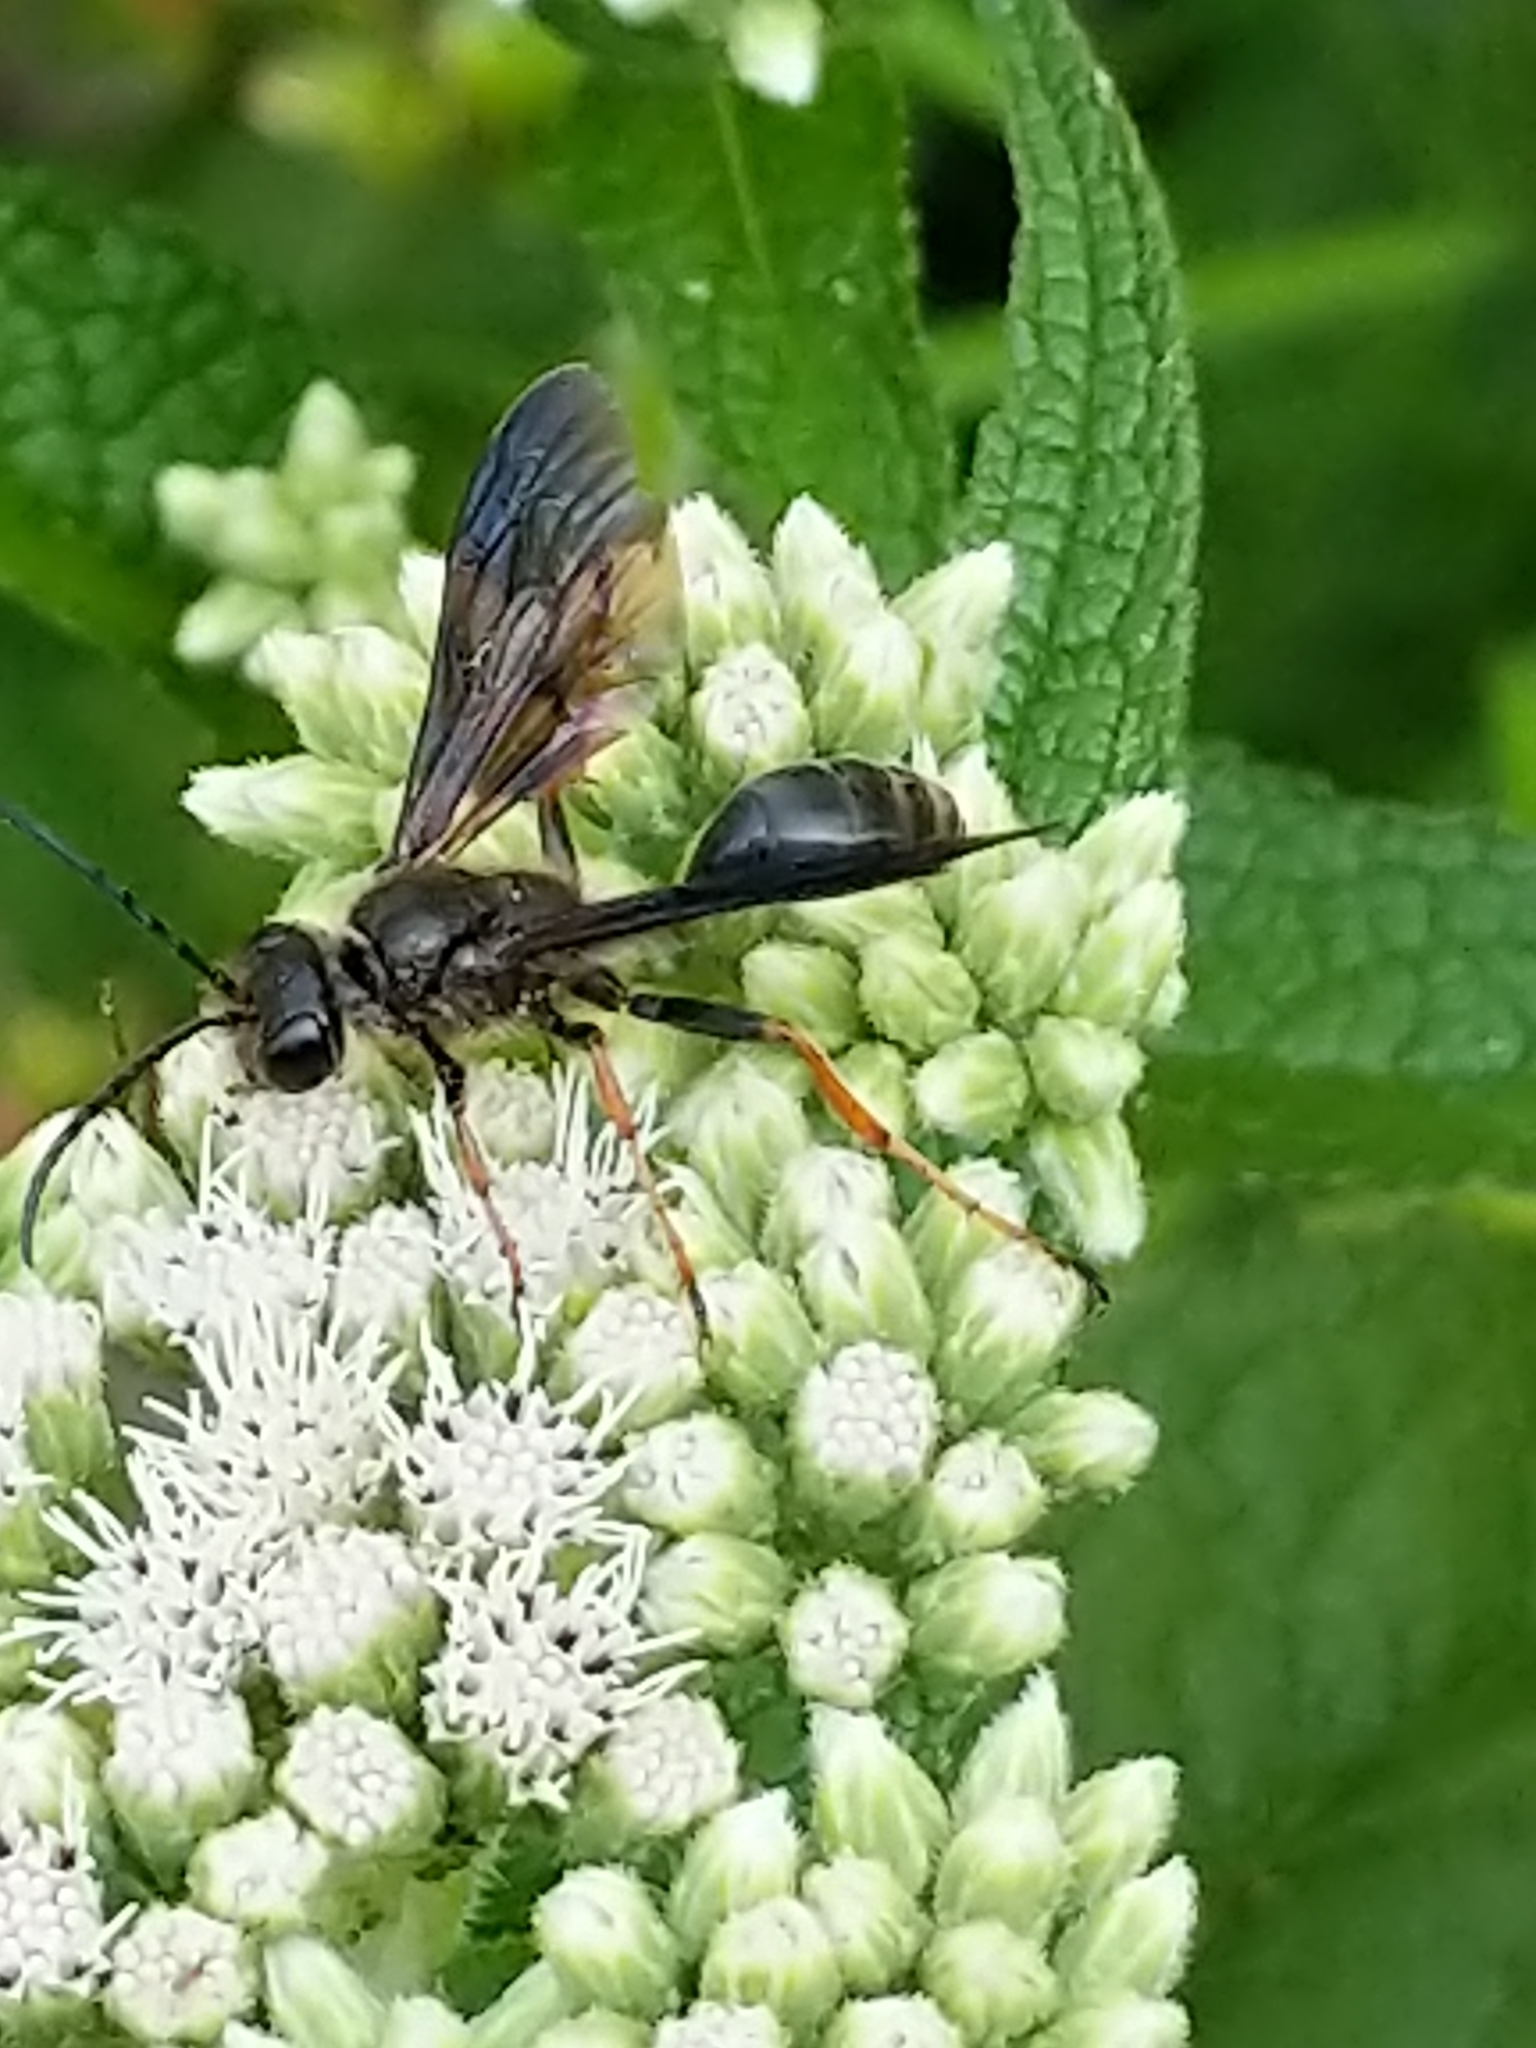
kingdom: Animalia
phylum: Arthropoda
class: Insecta
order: Hymenoptera
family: Sphecidae
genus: Isodontia
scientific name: Isodontia auripes
